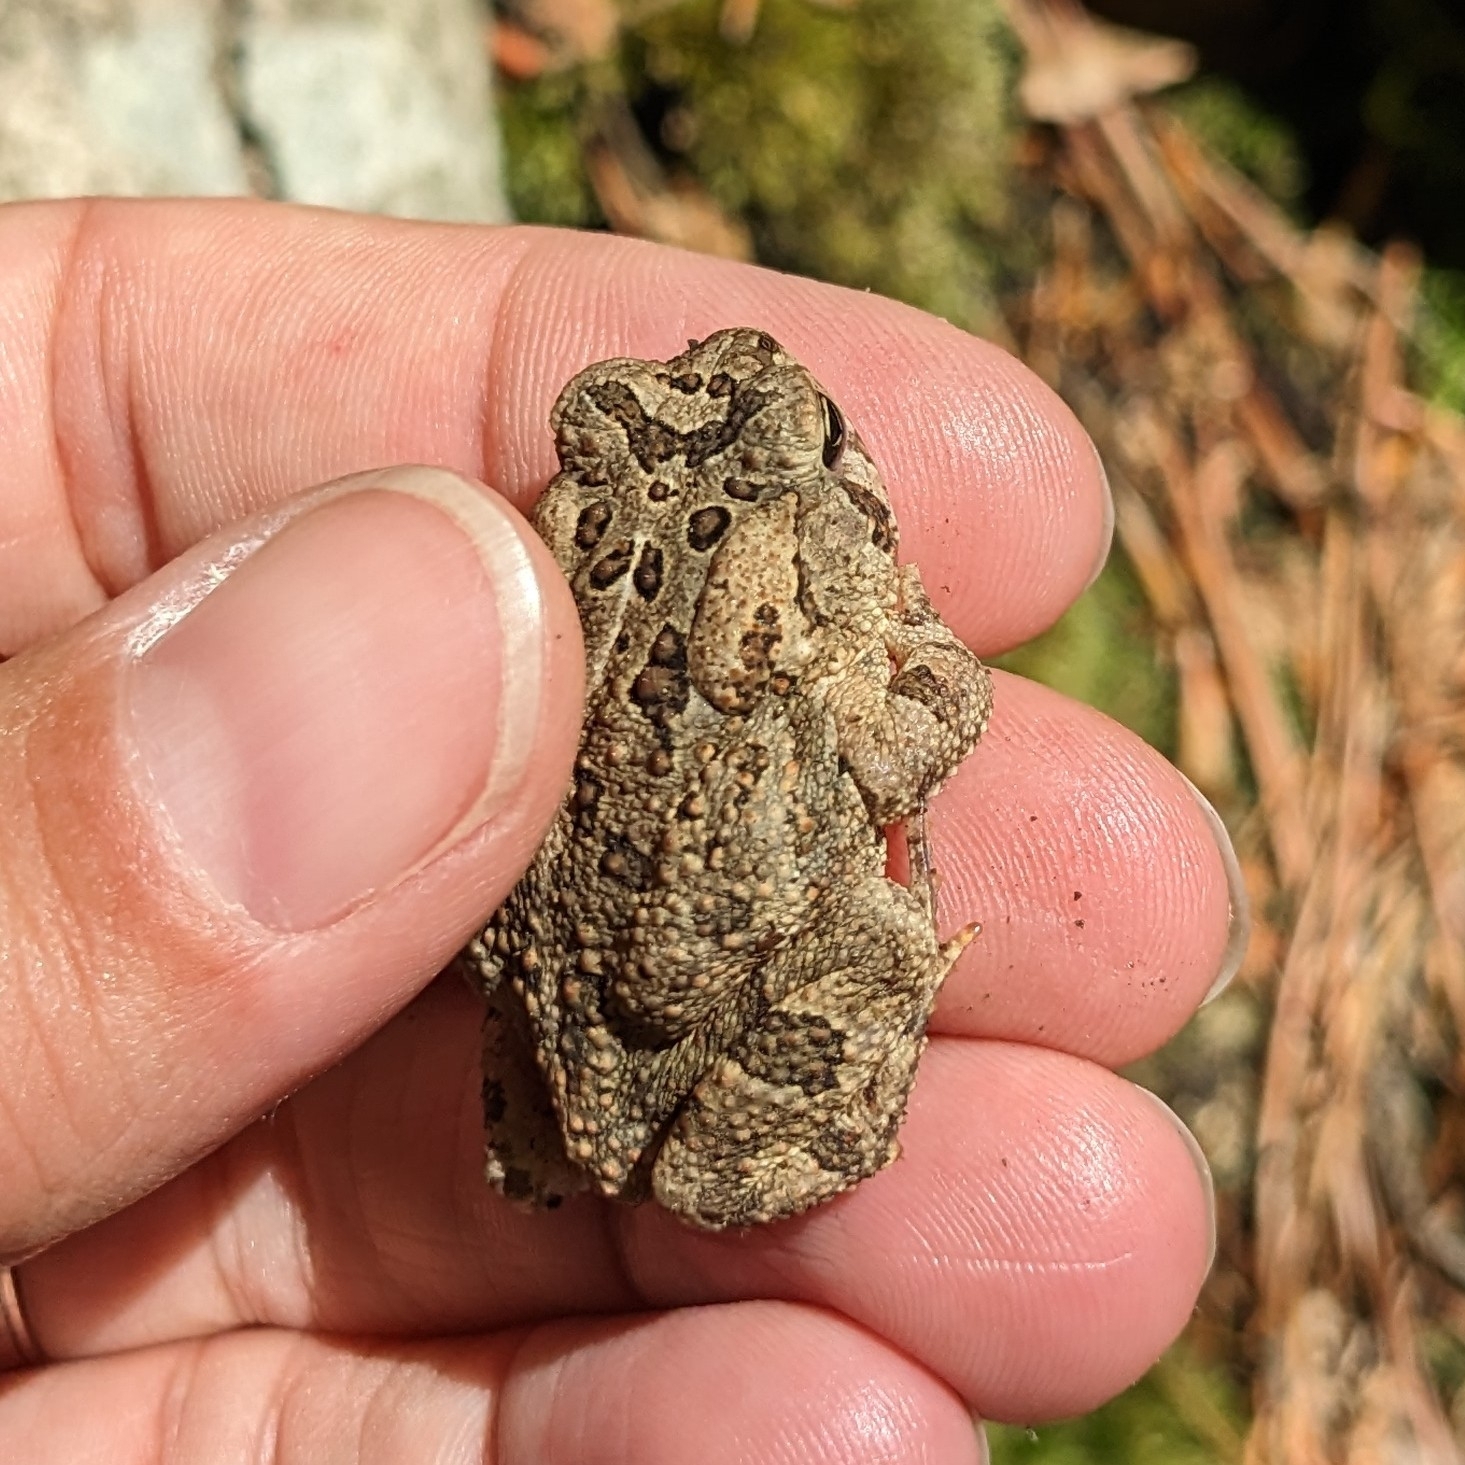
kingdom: Animalia
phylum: Chordata
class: Amphibia
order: Anura
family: Bufonidae
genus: Anaxyrus
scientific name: Anaxyrus fowleri
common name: Fowler's toad
